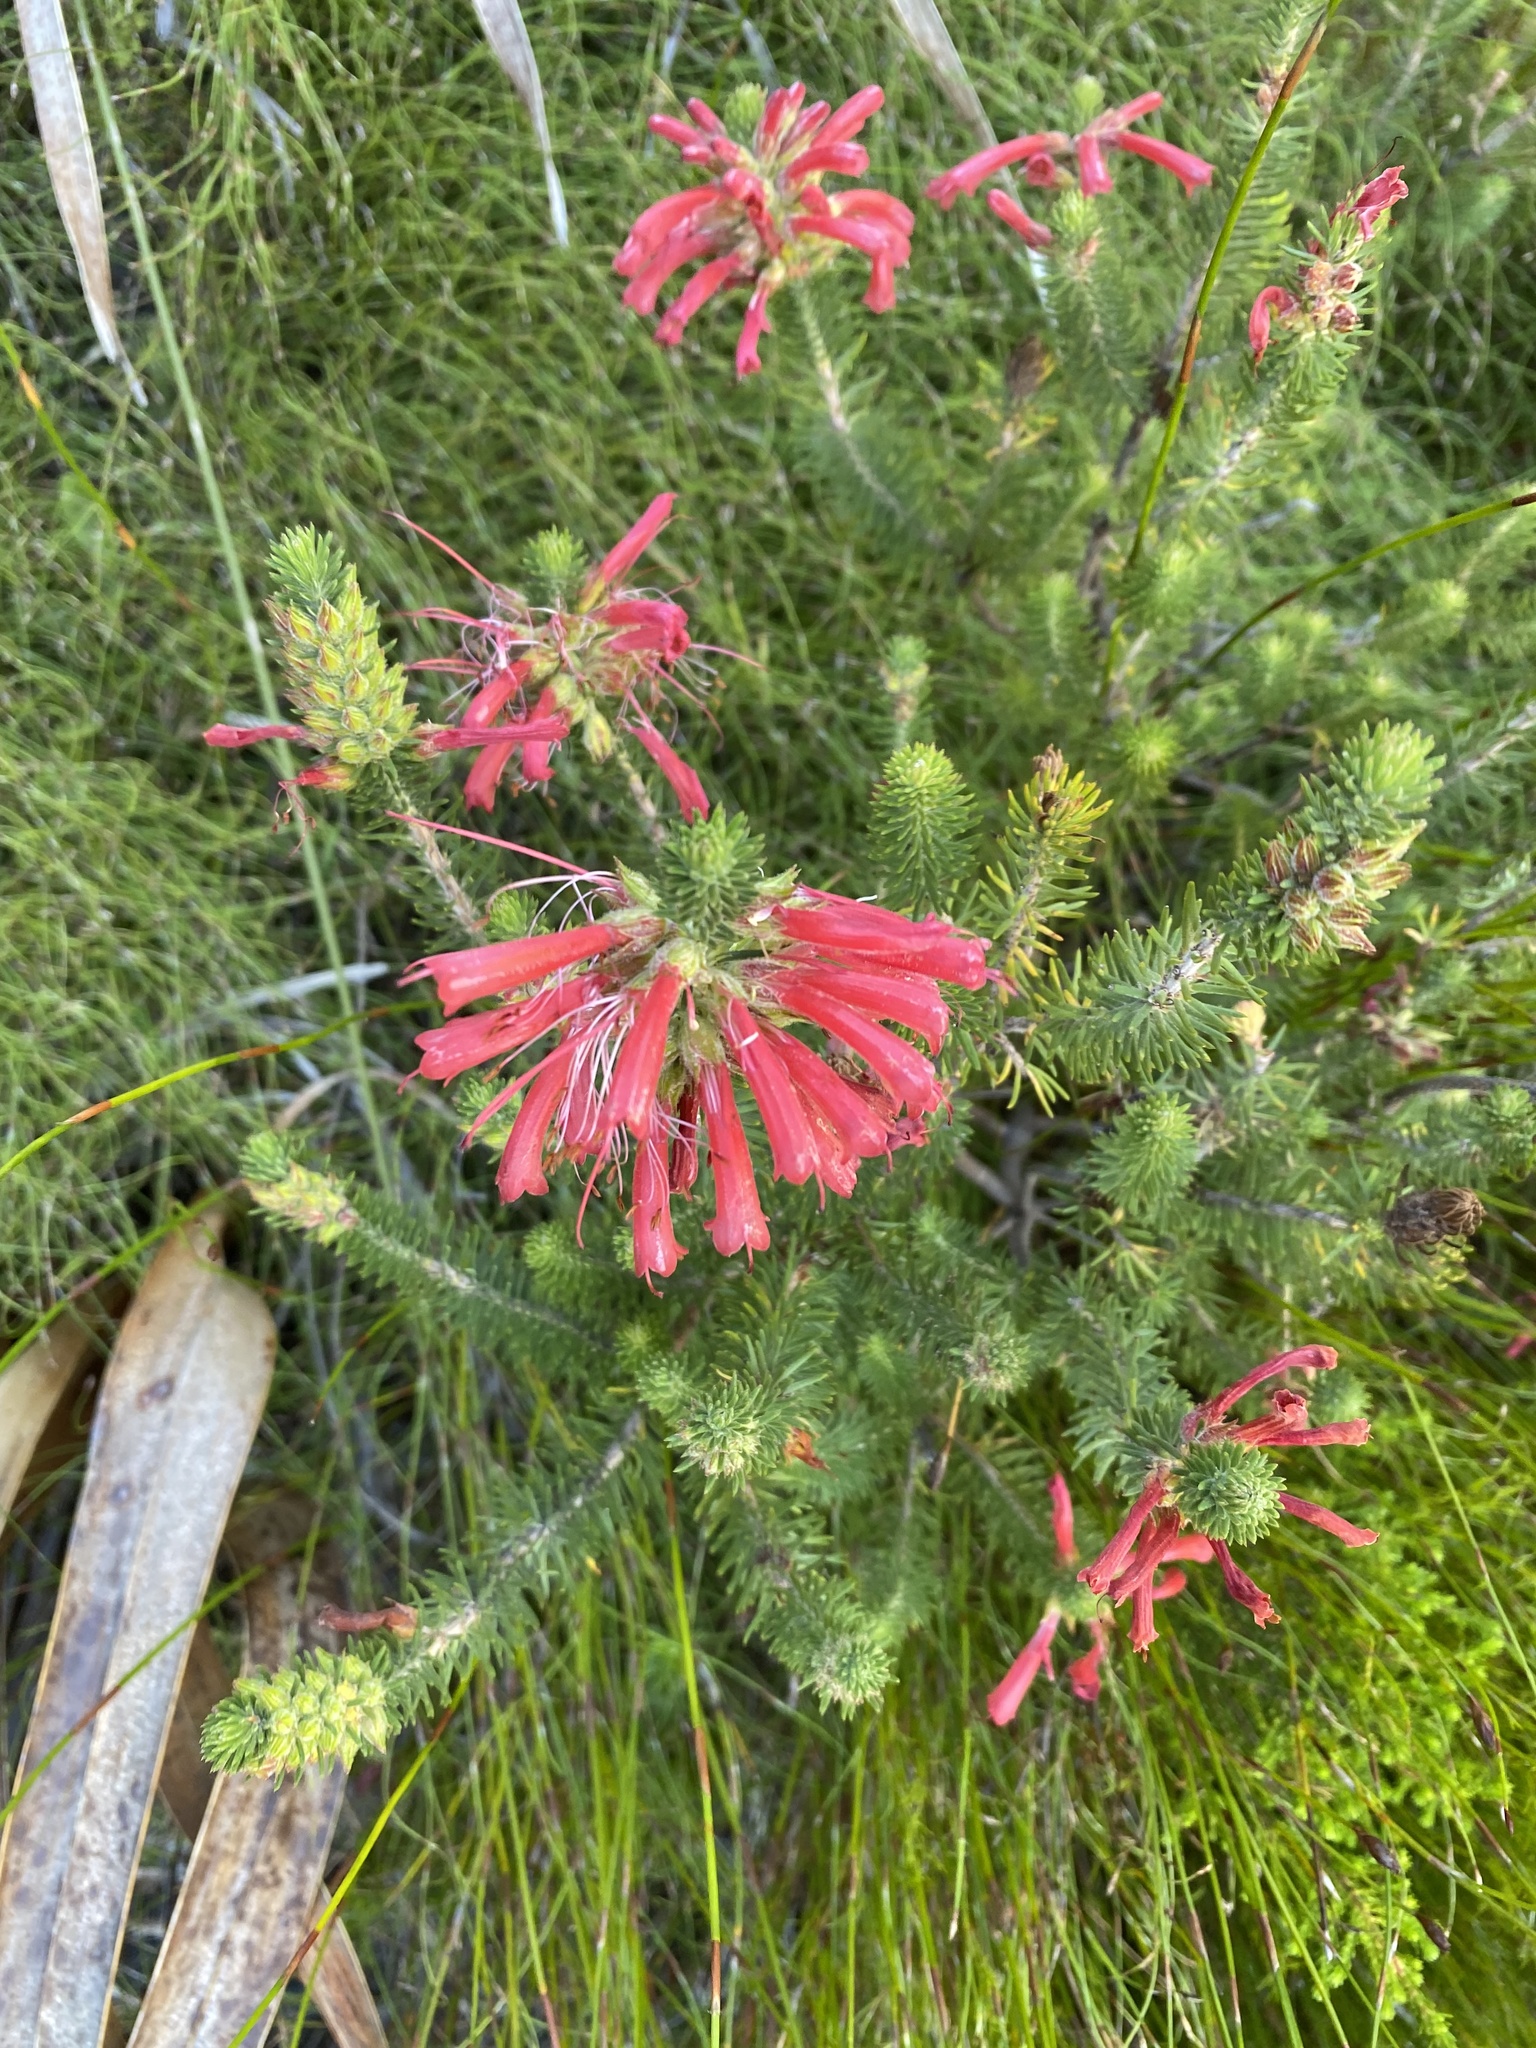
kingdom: Plantae
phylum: Tracheophyta
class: Magnoliopsida
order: Ericales
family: Ericaceae
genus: Erica
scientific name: Erica abietina
